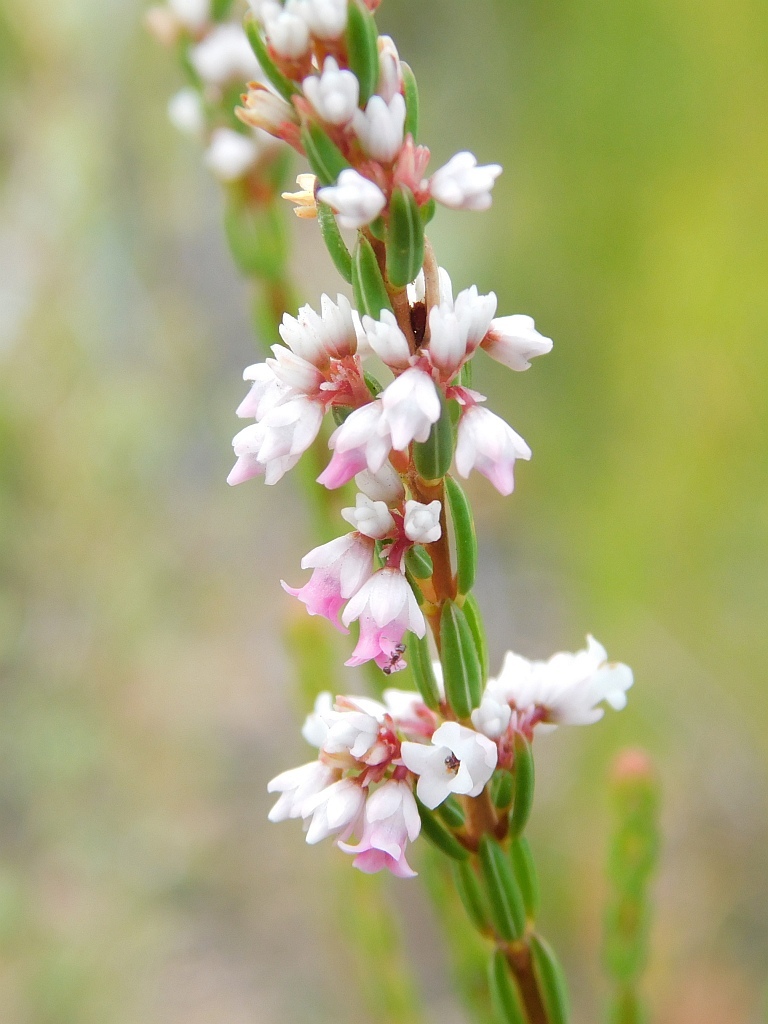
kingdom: Plantae
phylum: Tracheophyta
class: Magnoliopsida
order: Ericales
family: Ericaceae
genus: Erica
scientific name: Erica articularis
